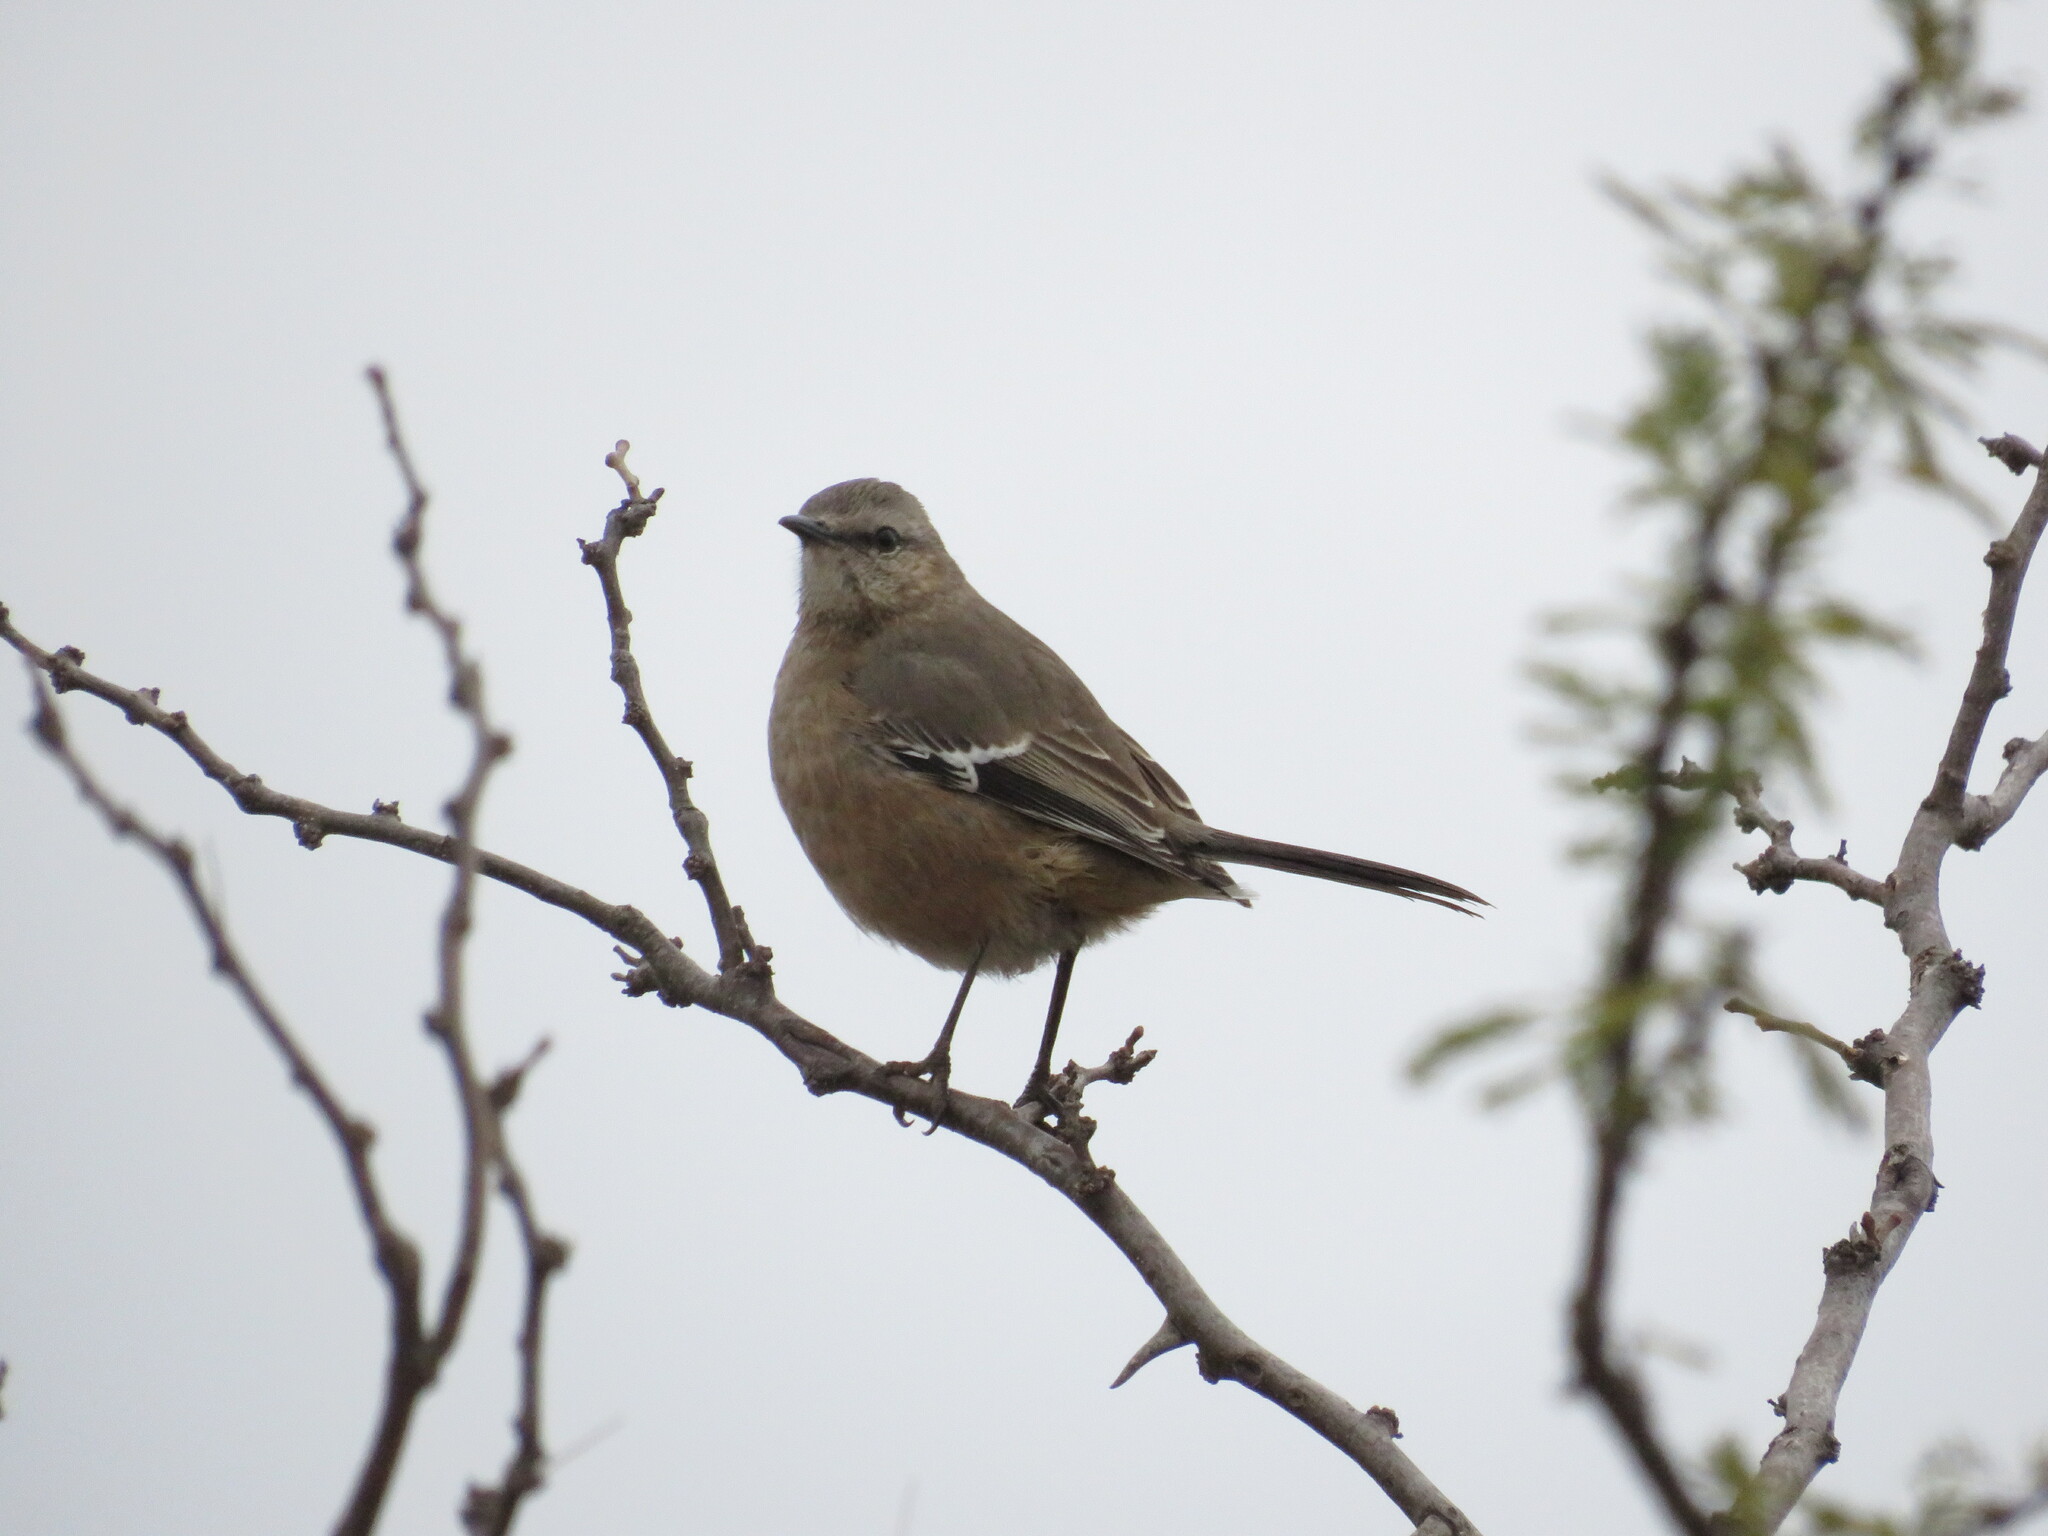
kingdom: Animalia
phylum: Chordata
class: Aves
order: Passeriformes
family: Mimidae
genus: Mimus
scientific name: Mimus patagonicus
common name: Patagonian mockingbird
